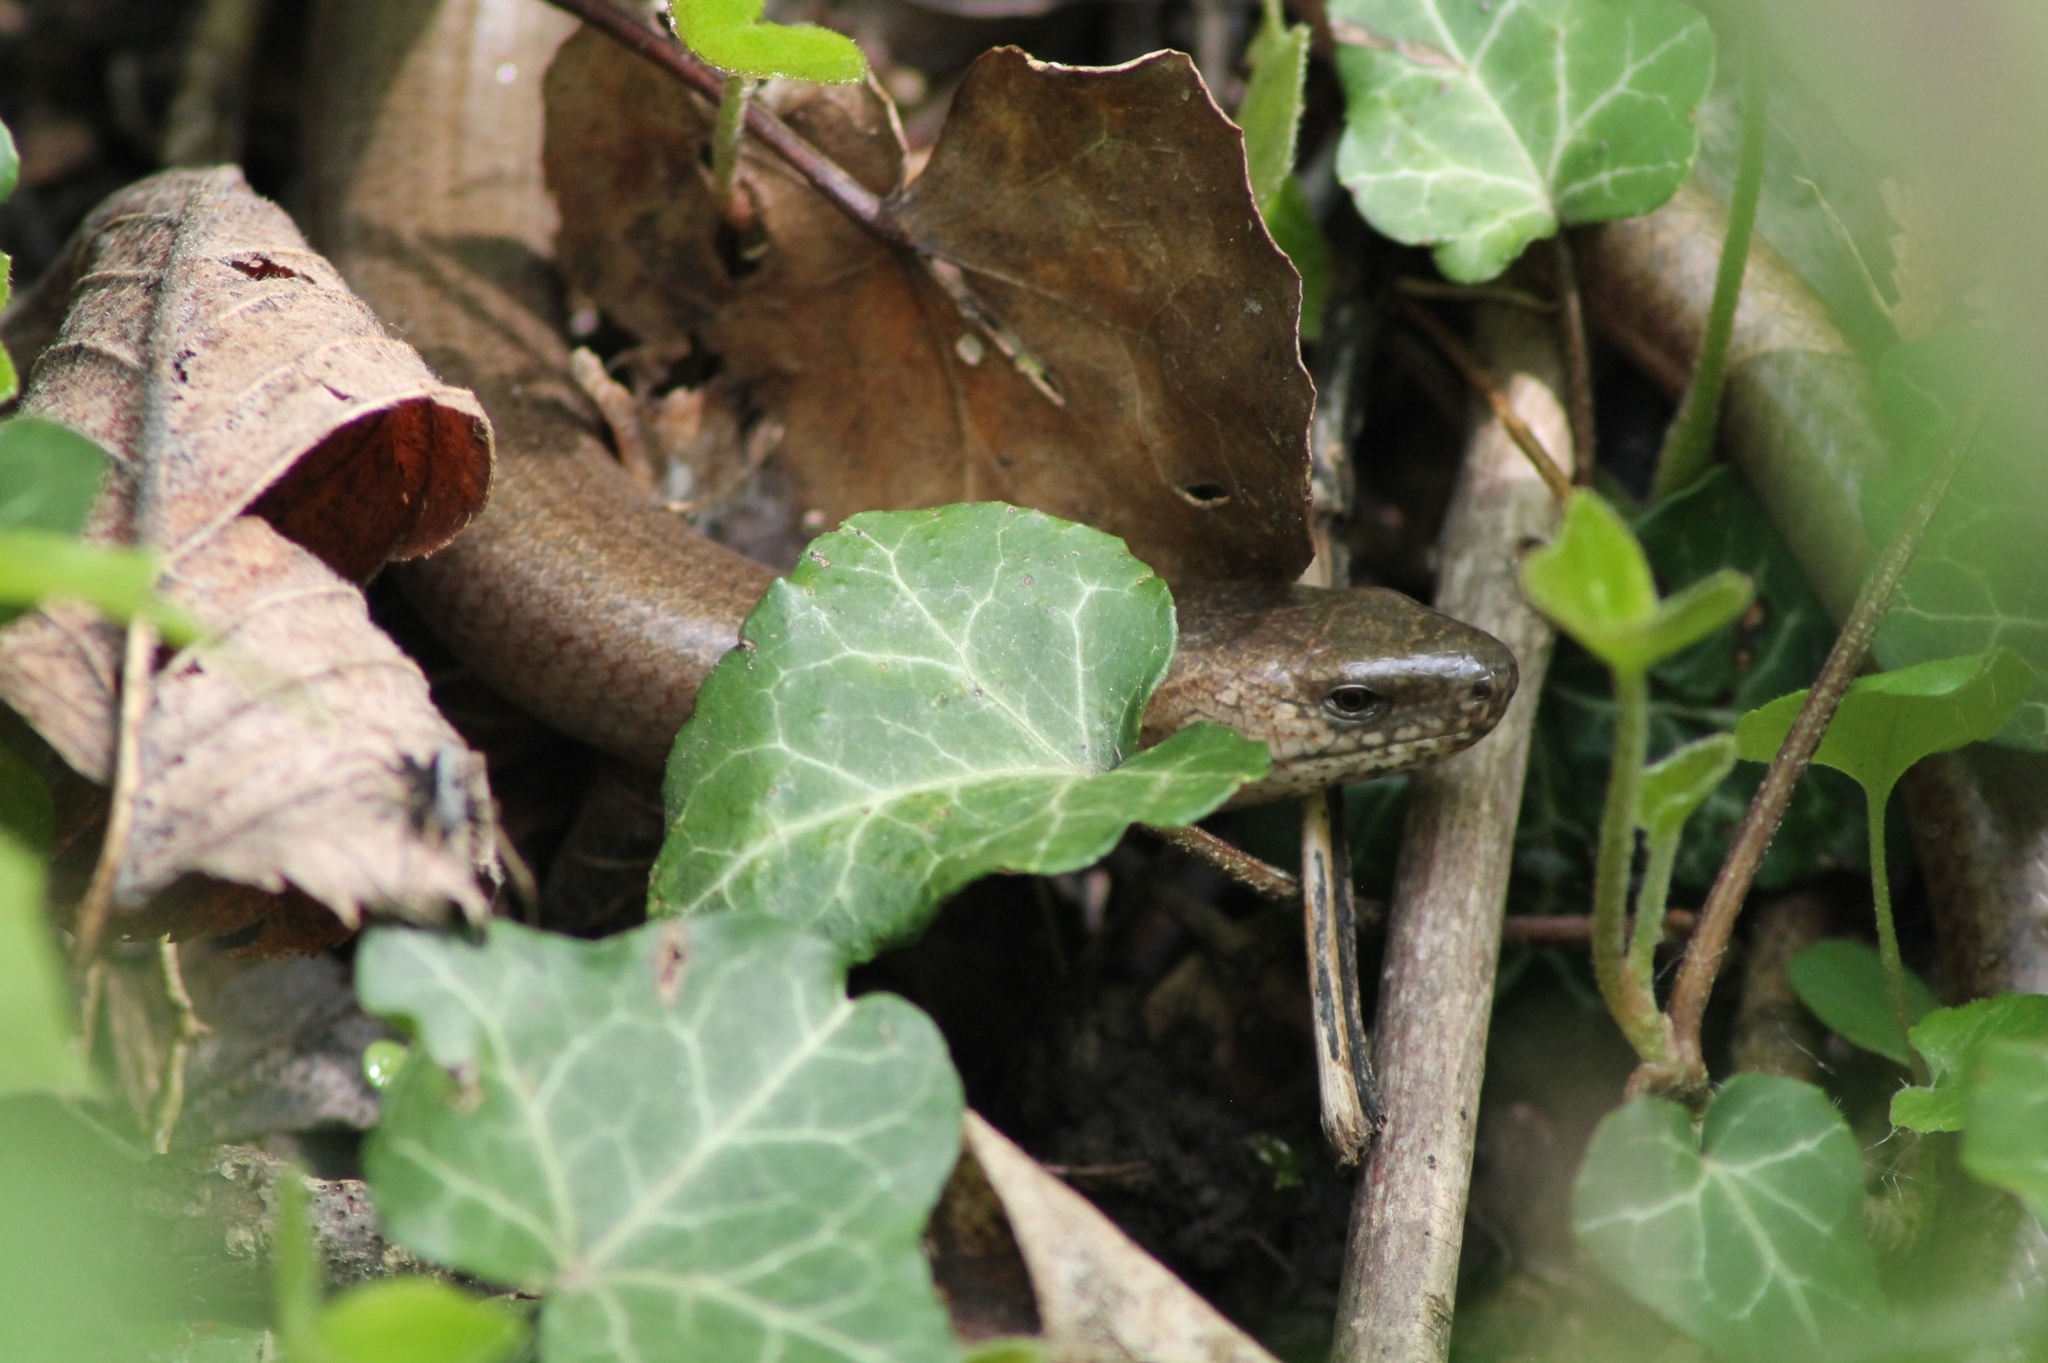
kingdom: Animalia
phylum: Chordata
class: Squamata
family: Anguidae
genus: Anguis
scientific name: Anguis fragilis
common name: Slow worm
